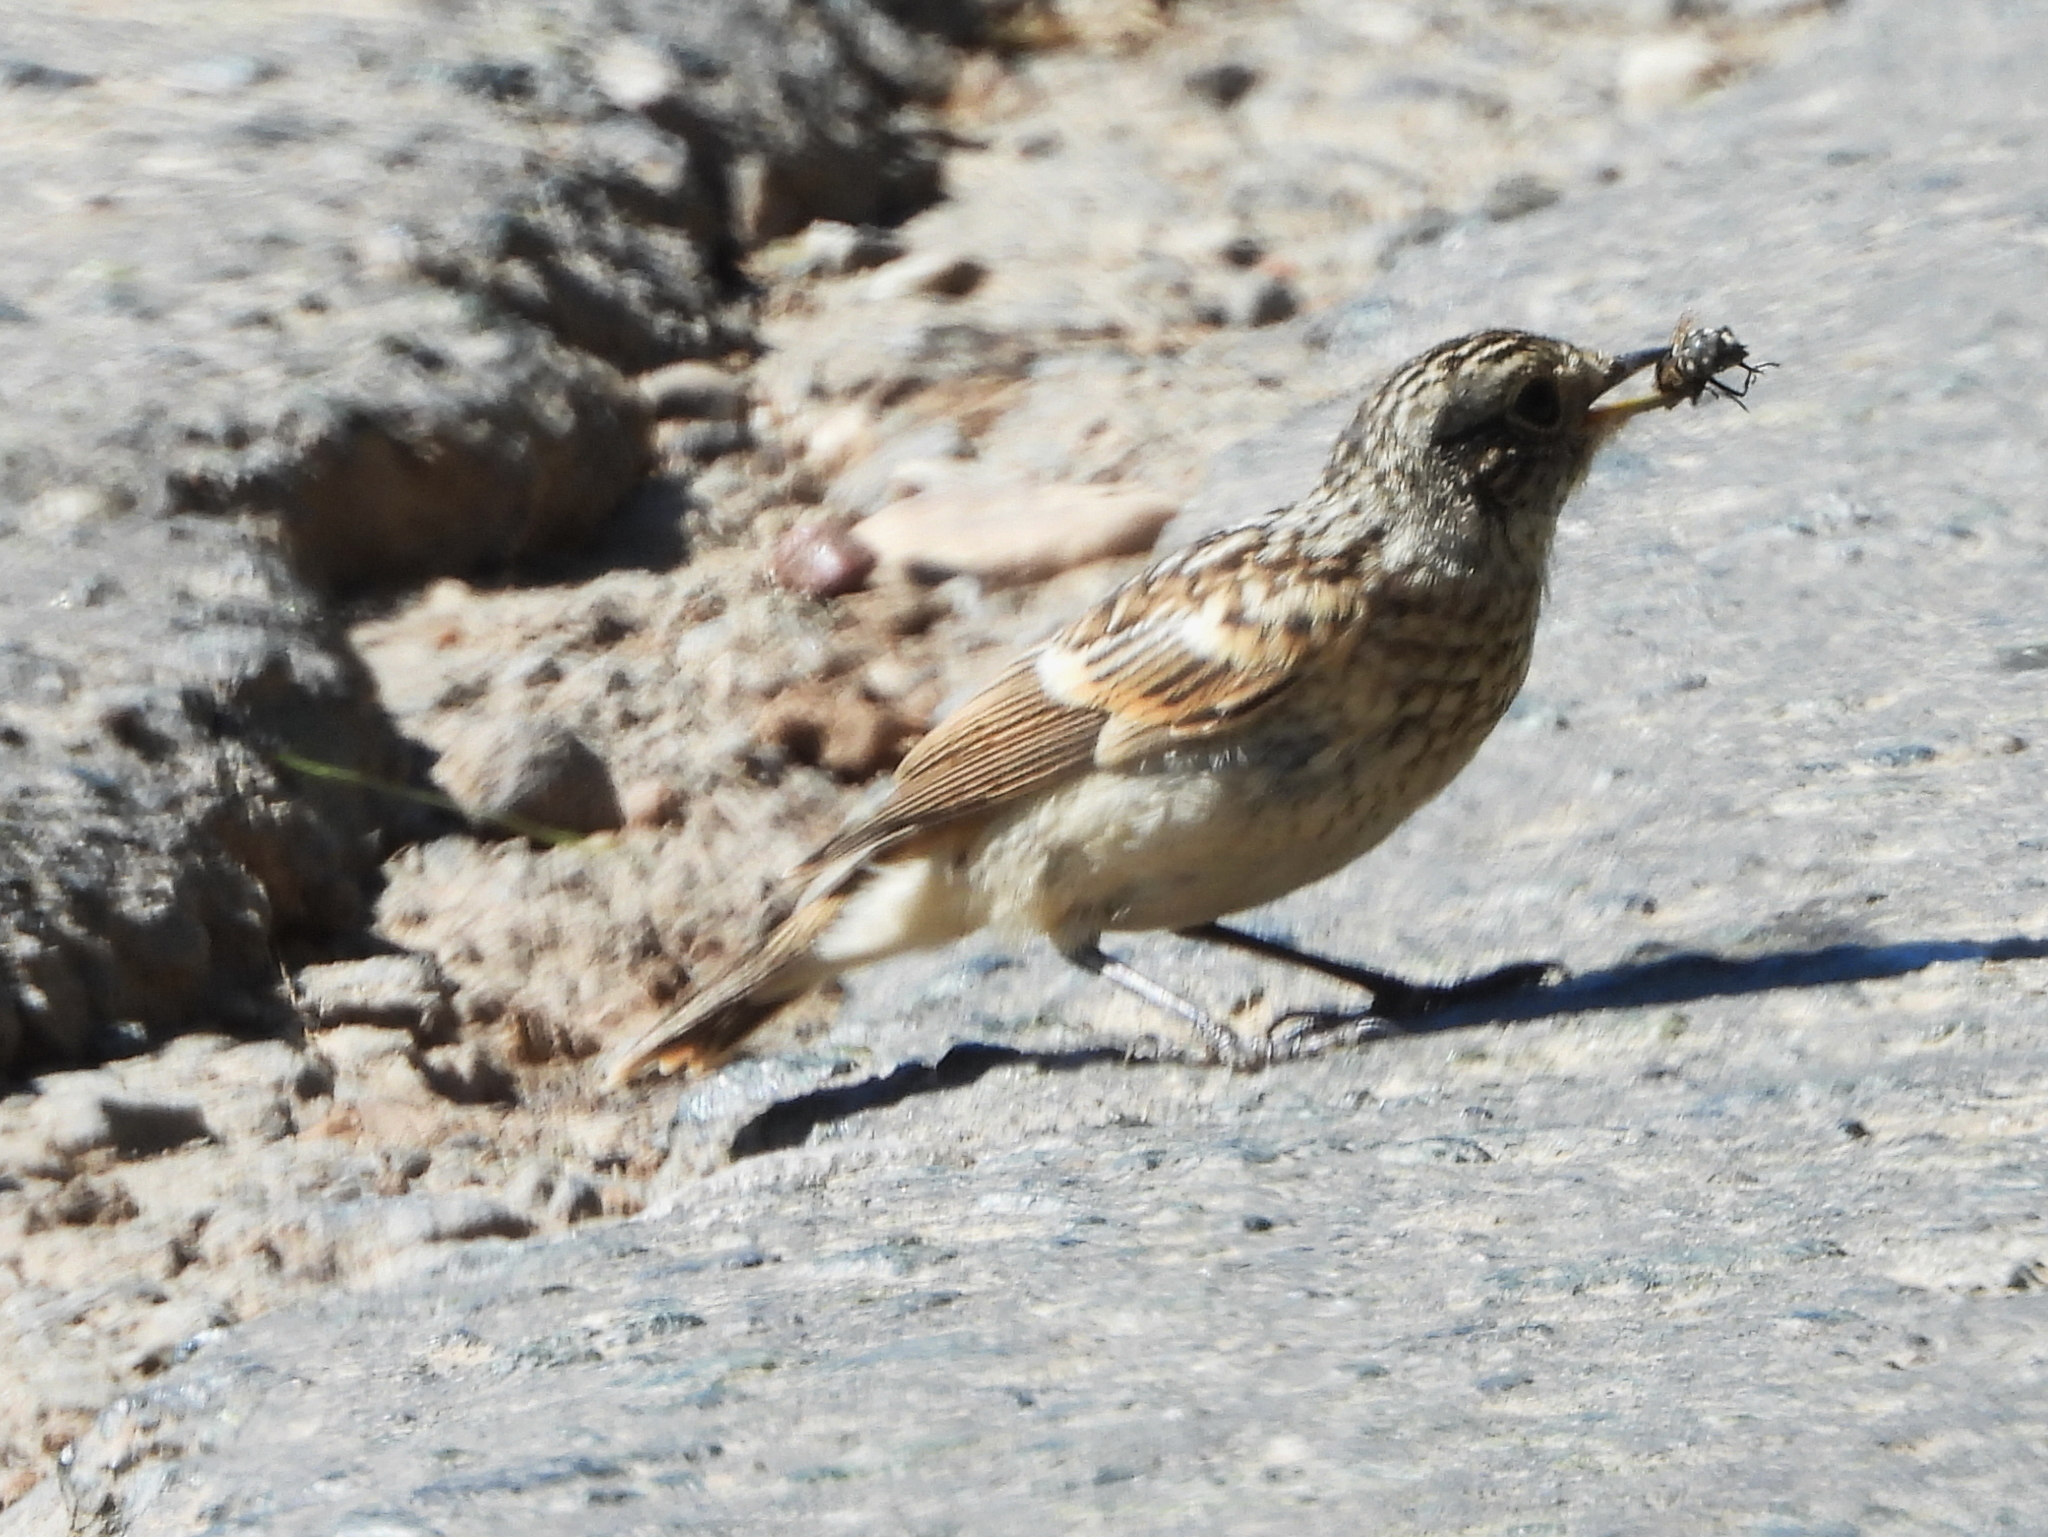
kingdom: Animalia
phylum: Chordata
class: Aves
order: Passeriformes
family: Muscicapidae
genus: Saxicola
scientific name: Saxicola rubetra
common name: Whinchat
